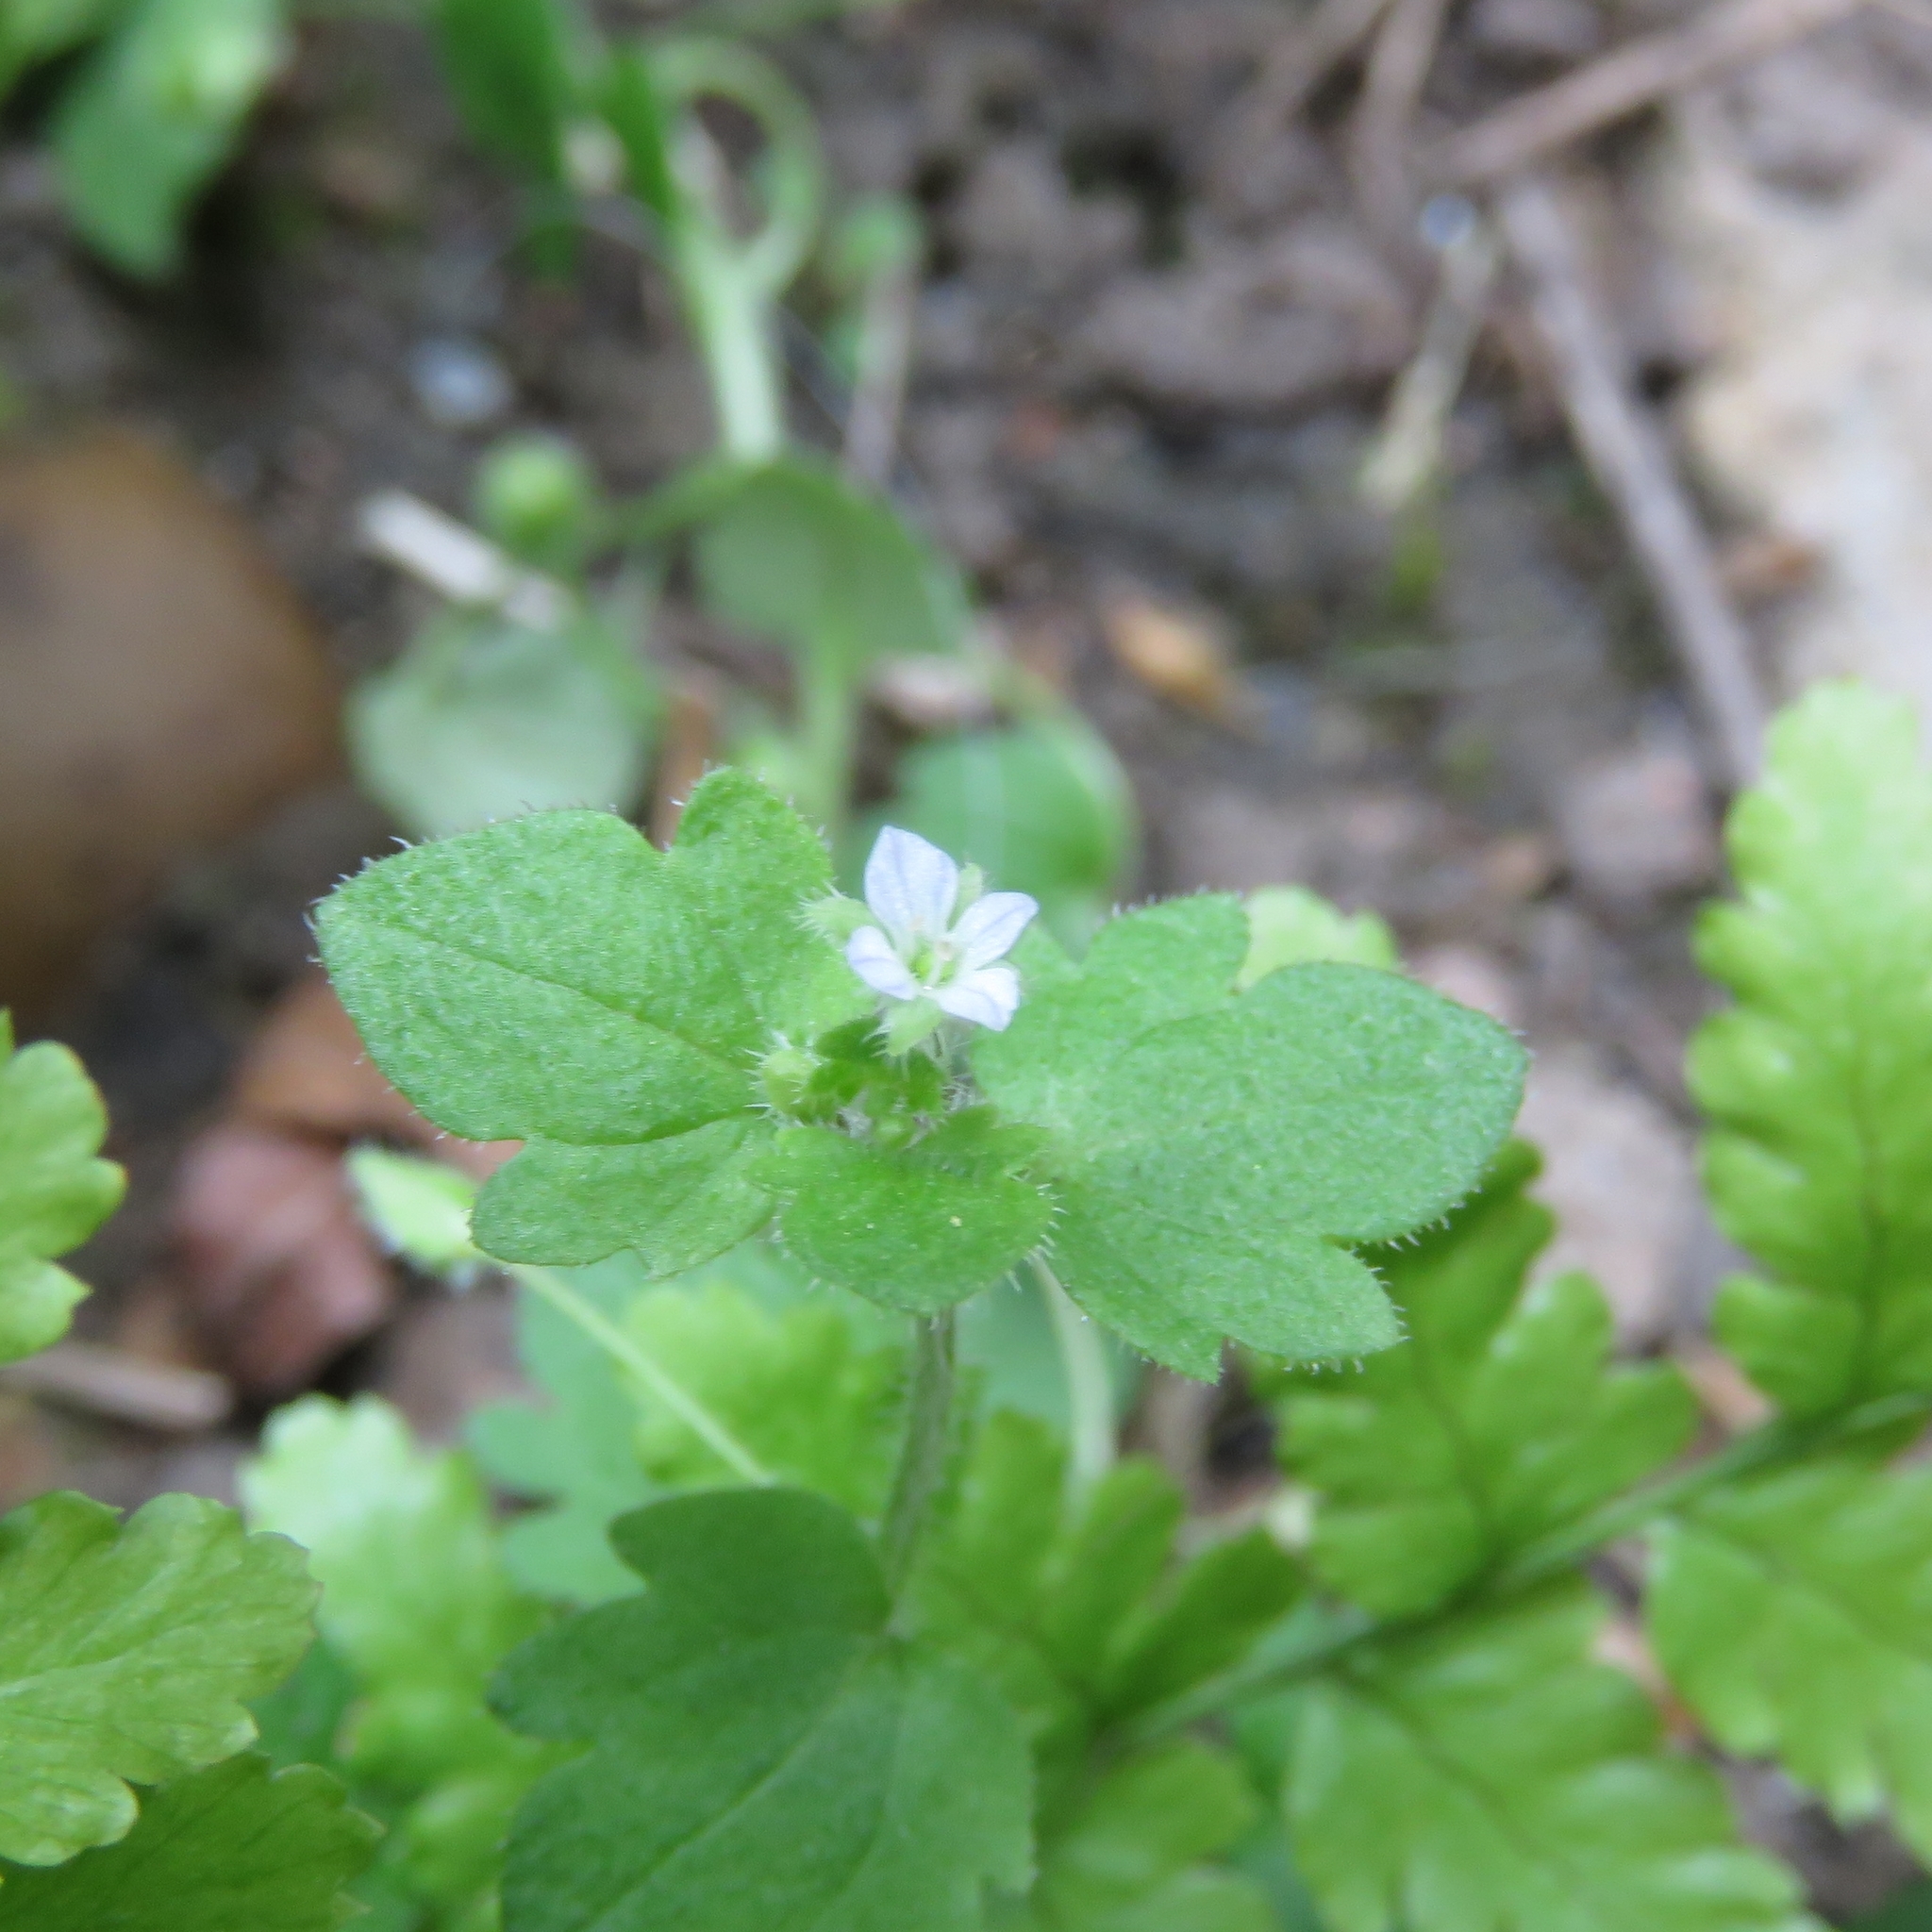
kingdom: Plantae
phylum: Tracheophyta
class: Magnoliopsida
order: Lamiales
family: Plantaginaceae
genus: Veronica
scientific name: Veronica hederifolia
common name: Ivy-leaved speedwell
